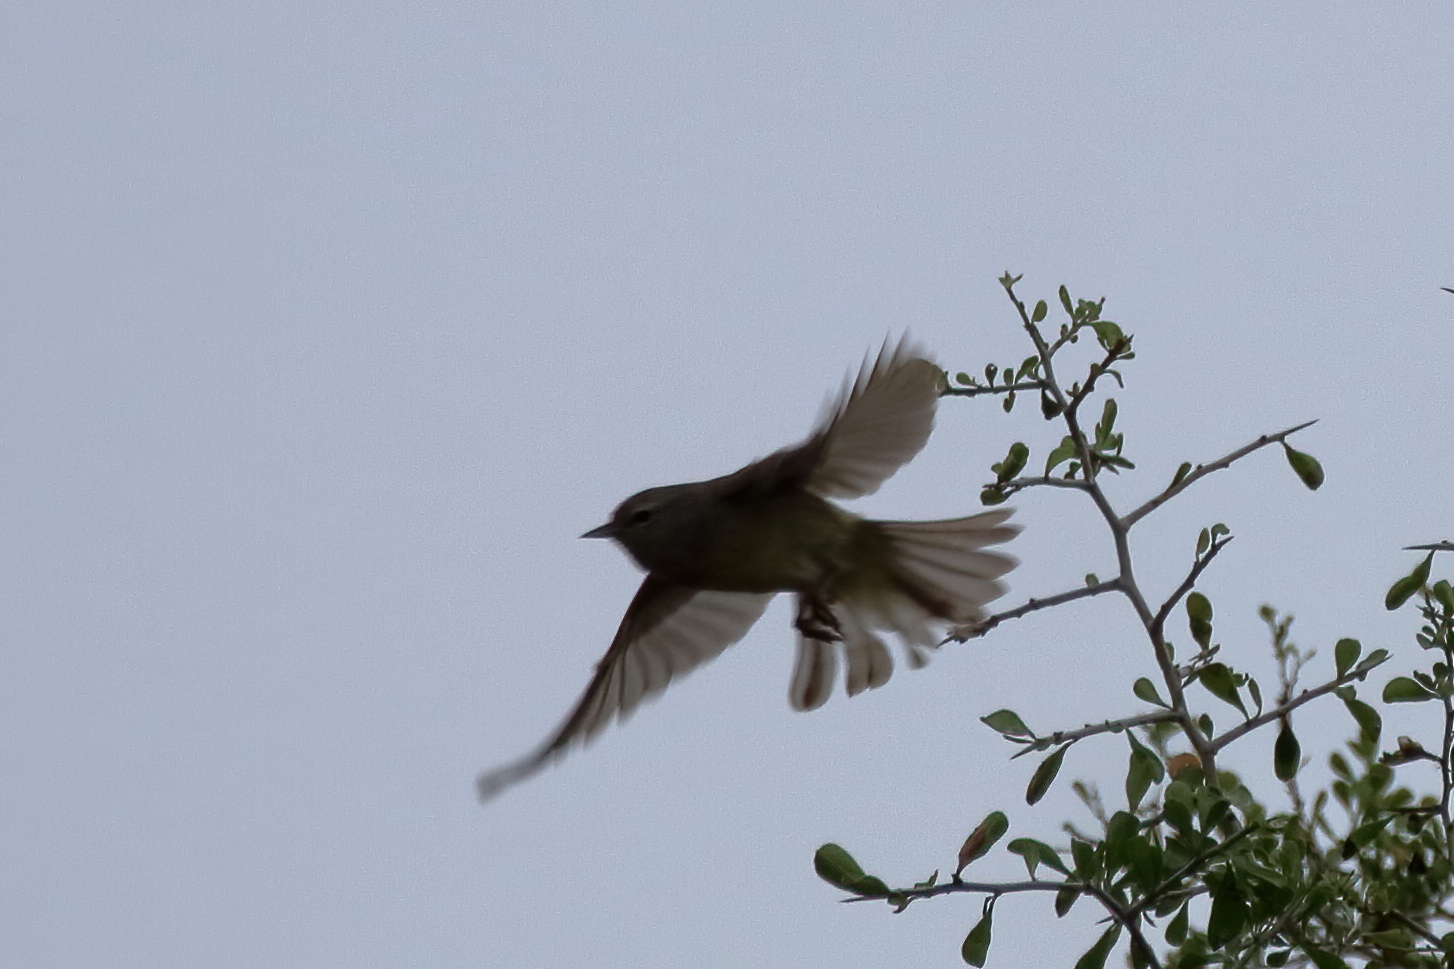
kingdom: Animalia
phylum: Chordata
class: Aves
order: Passeriformes
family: Parulidae
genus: Leiothlypis
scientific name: Leiothlypis celata
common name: Orange-crowned warbler
